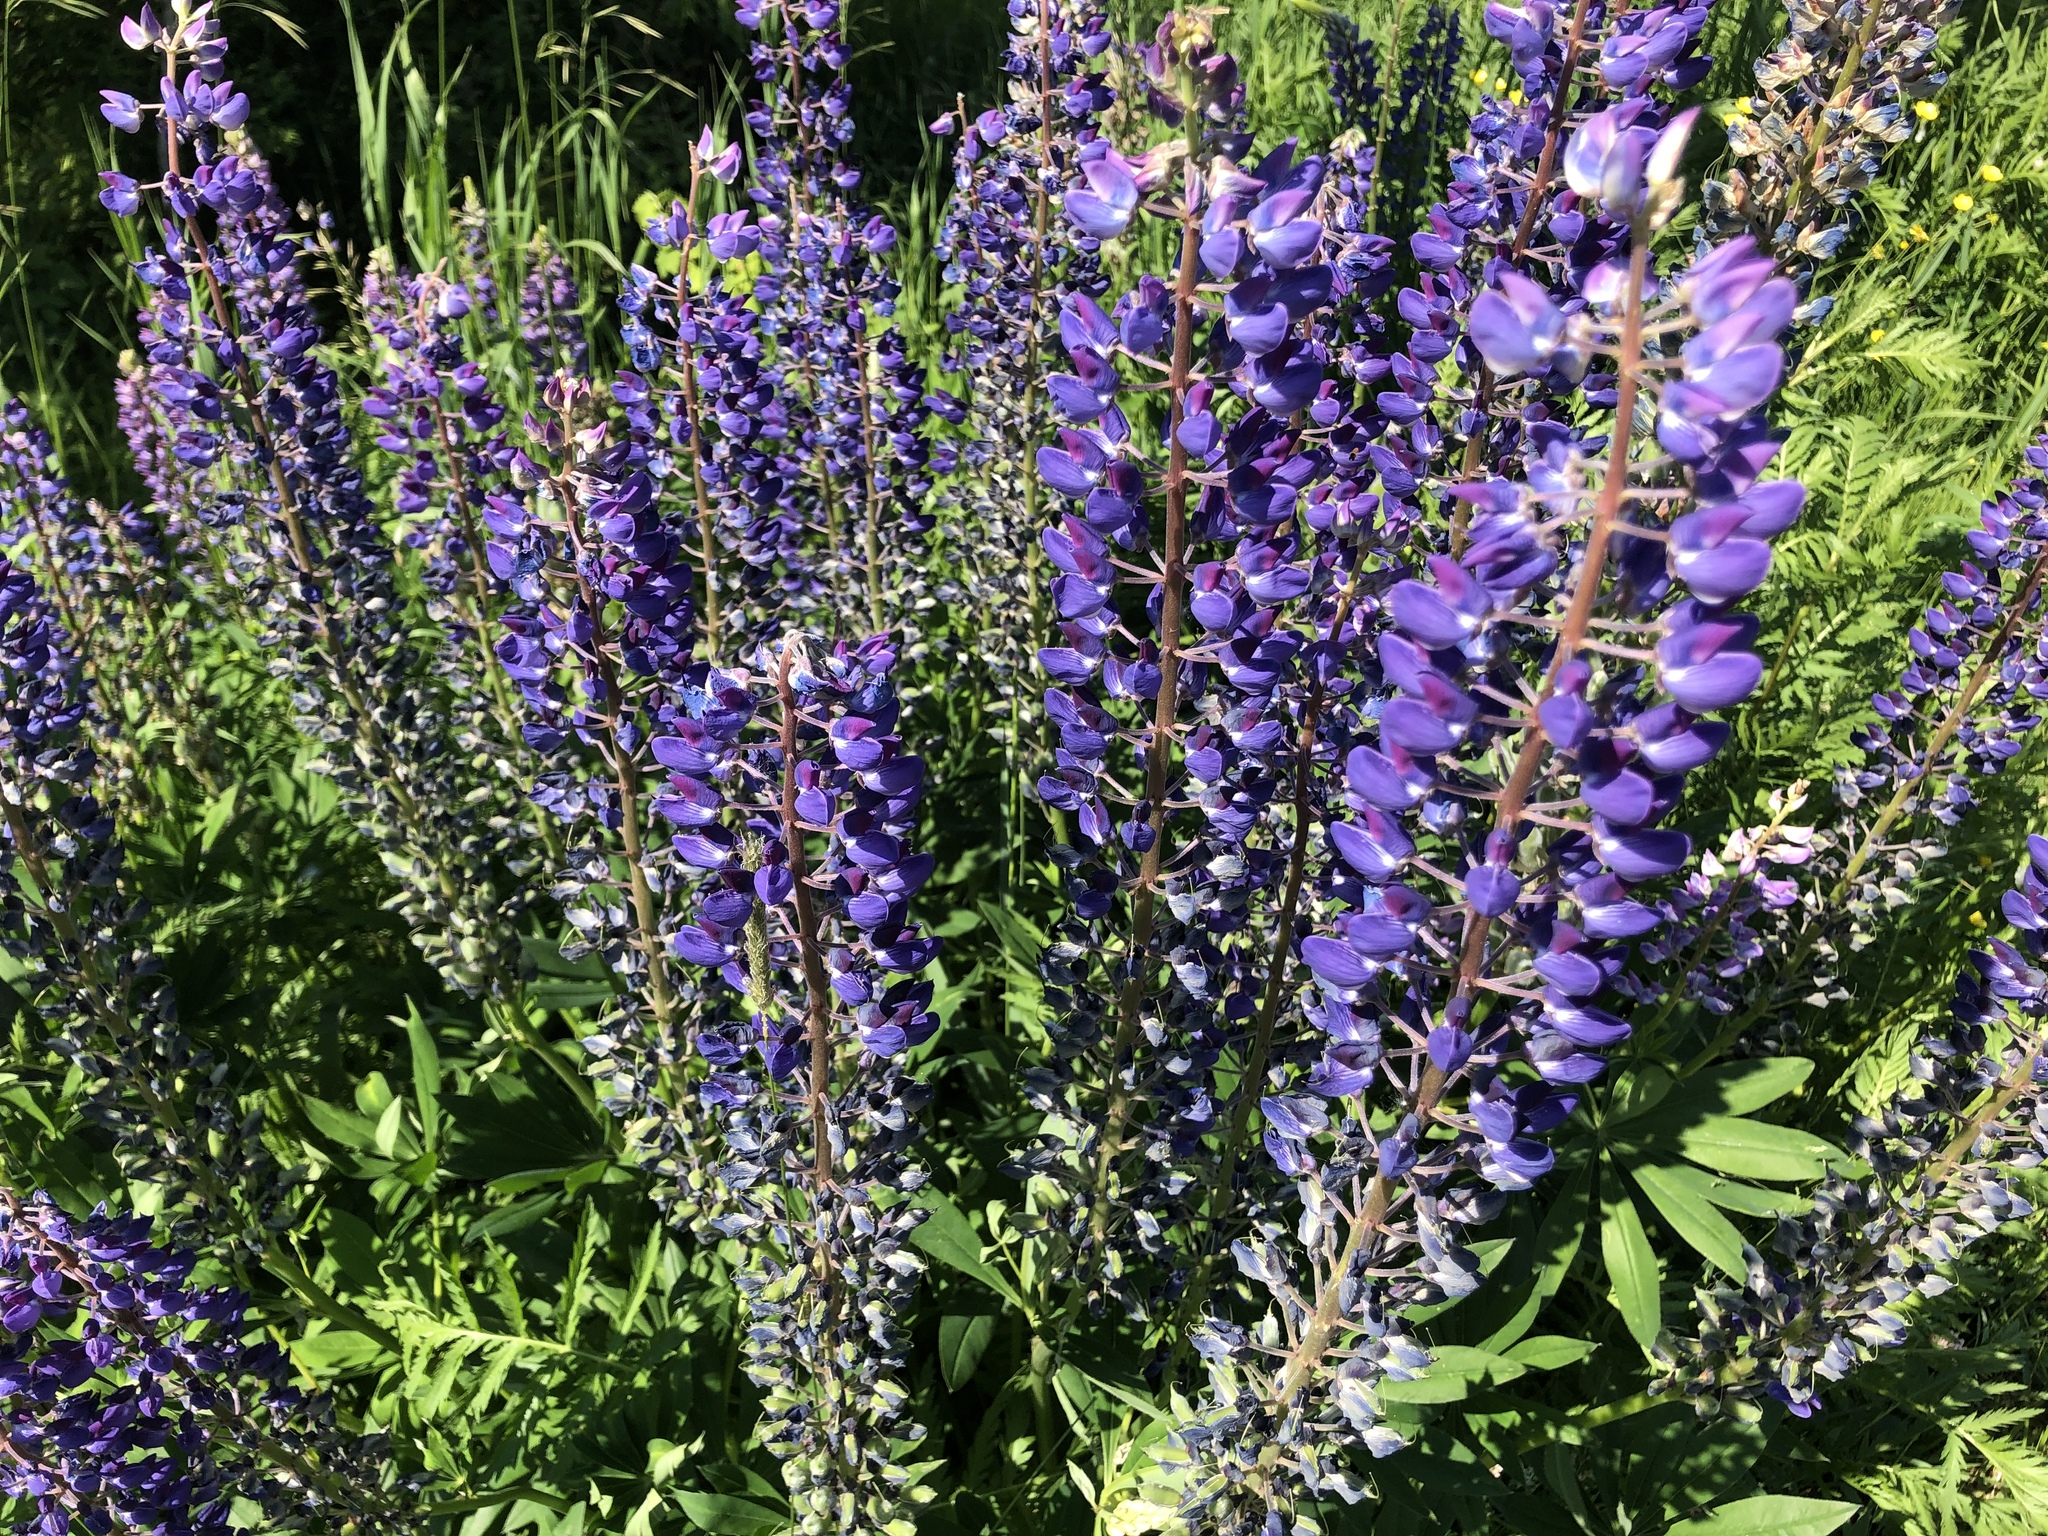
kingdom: Plantae
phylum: Tracheophyta
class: Magnoliopsida
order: Fabales
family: Fabaceae
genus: Lupinus
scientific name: Lupinus polyphyllus
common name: Garden lupin
